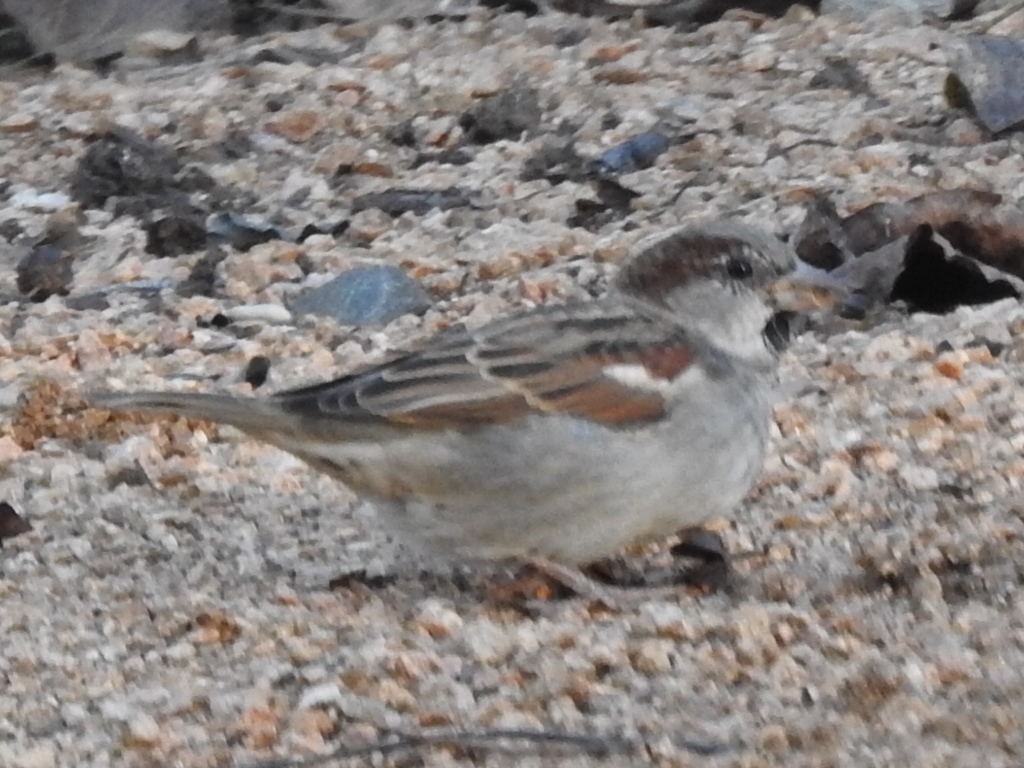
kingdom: Animalia
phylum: Chordata
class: Aves
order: Passeriformes
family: Passeridae
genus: Passer
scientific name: Passer domesticus
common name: House sparrow
